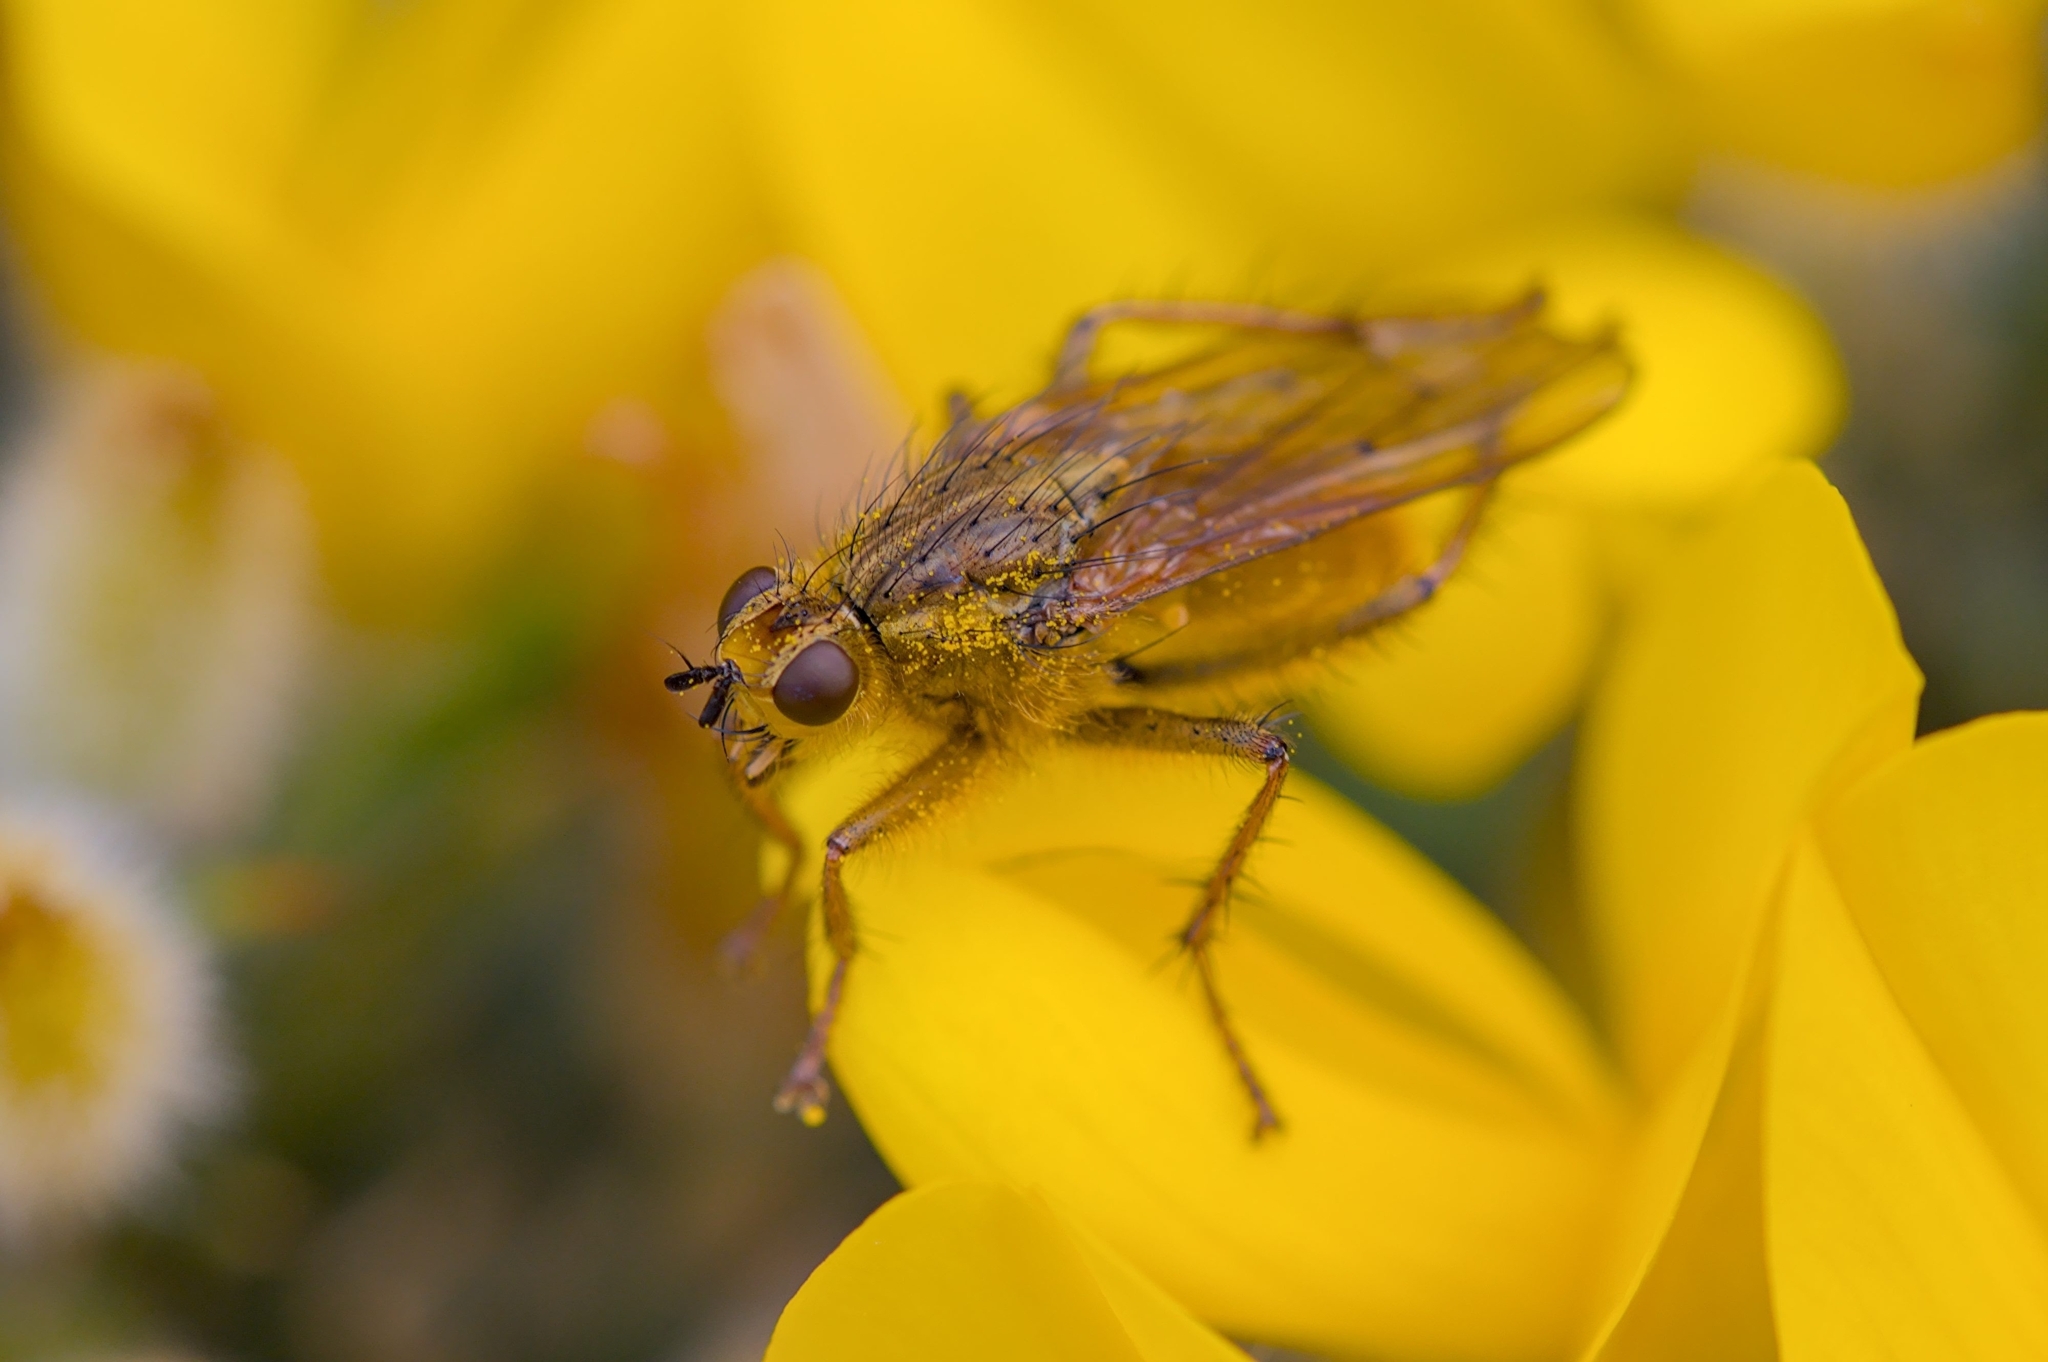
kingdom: Animalia
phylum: Arthropoda
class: Insecta
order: Diptera
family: Scathophagidae
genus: Scathophaga
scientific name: Scathophaga stercoraria
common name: Yellow dung fly
